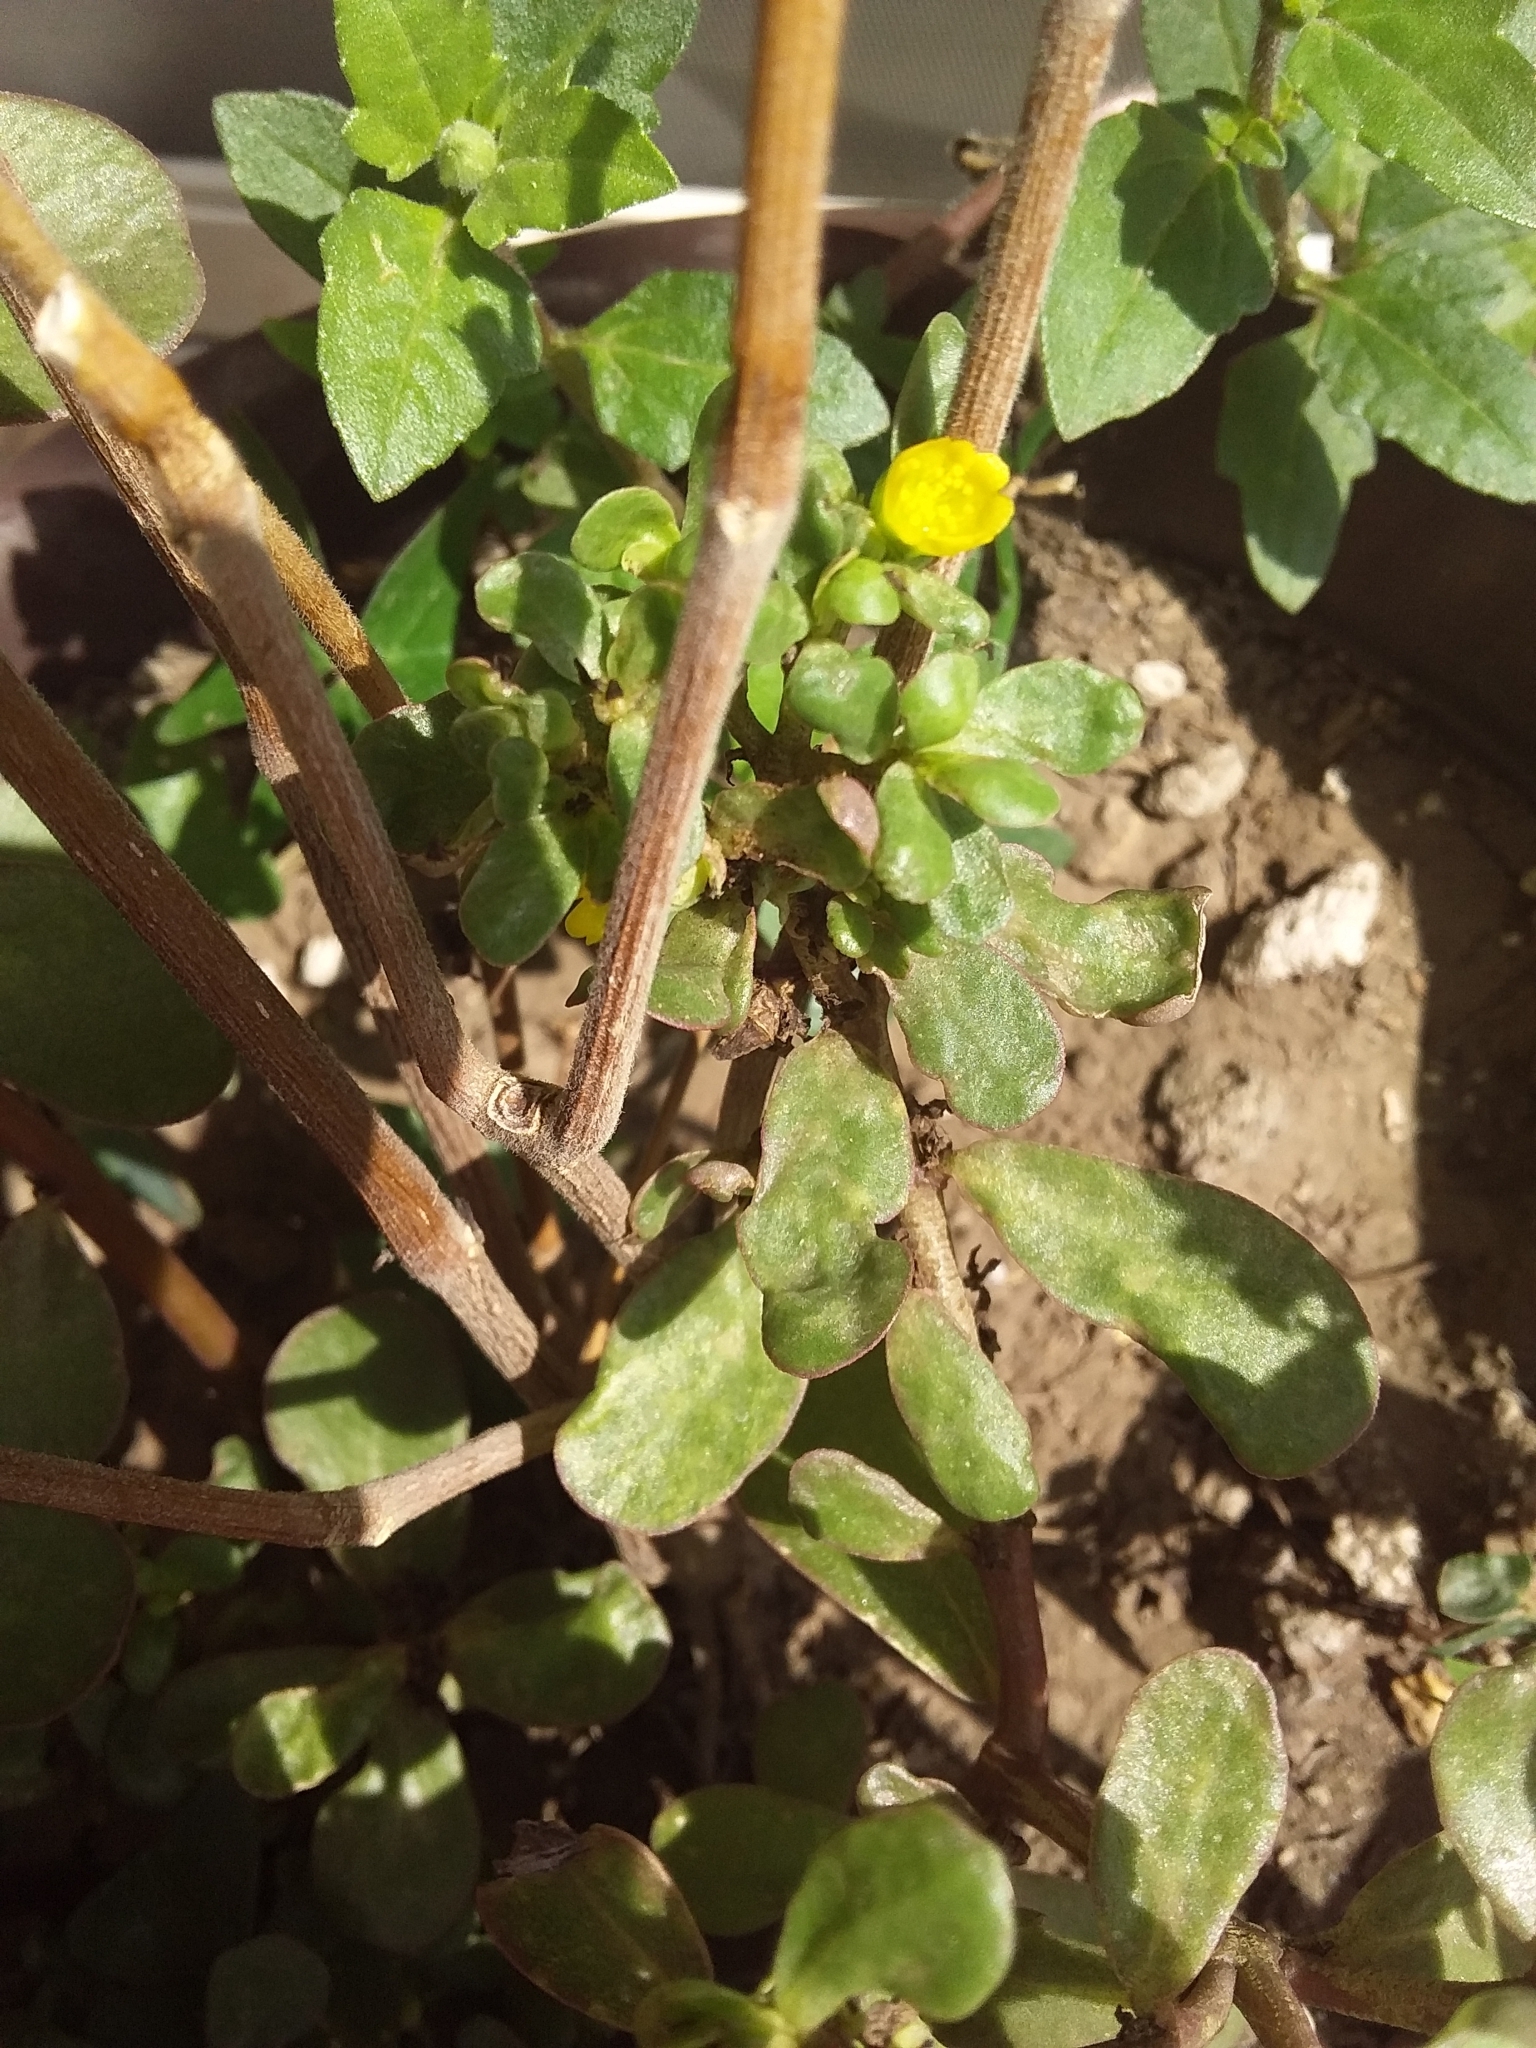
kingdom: Plantae
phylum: Tracheophyta
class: Magnoliopsida
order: Caryophyllales
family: Portulacaceae
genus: Portulaca
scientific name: Portulaca oleracea
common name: Common purslane
